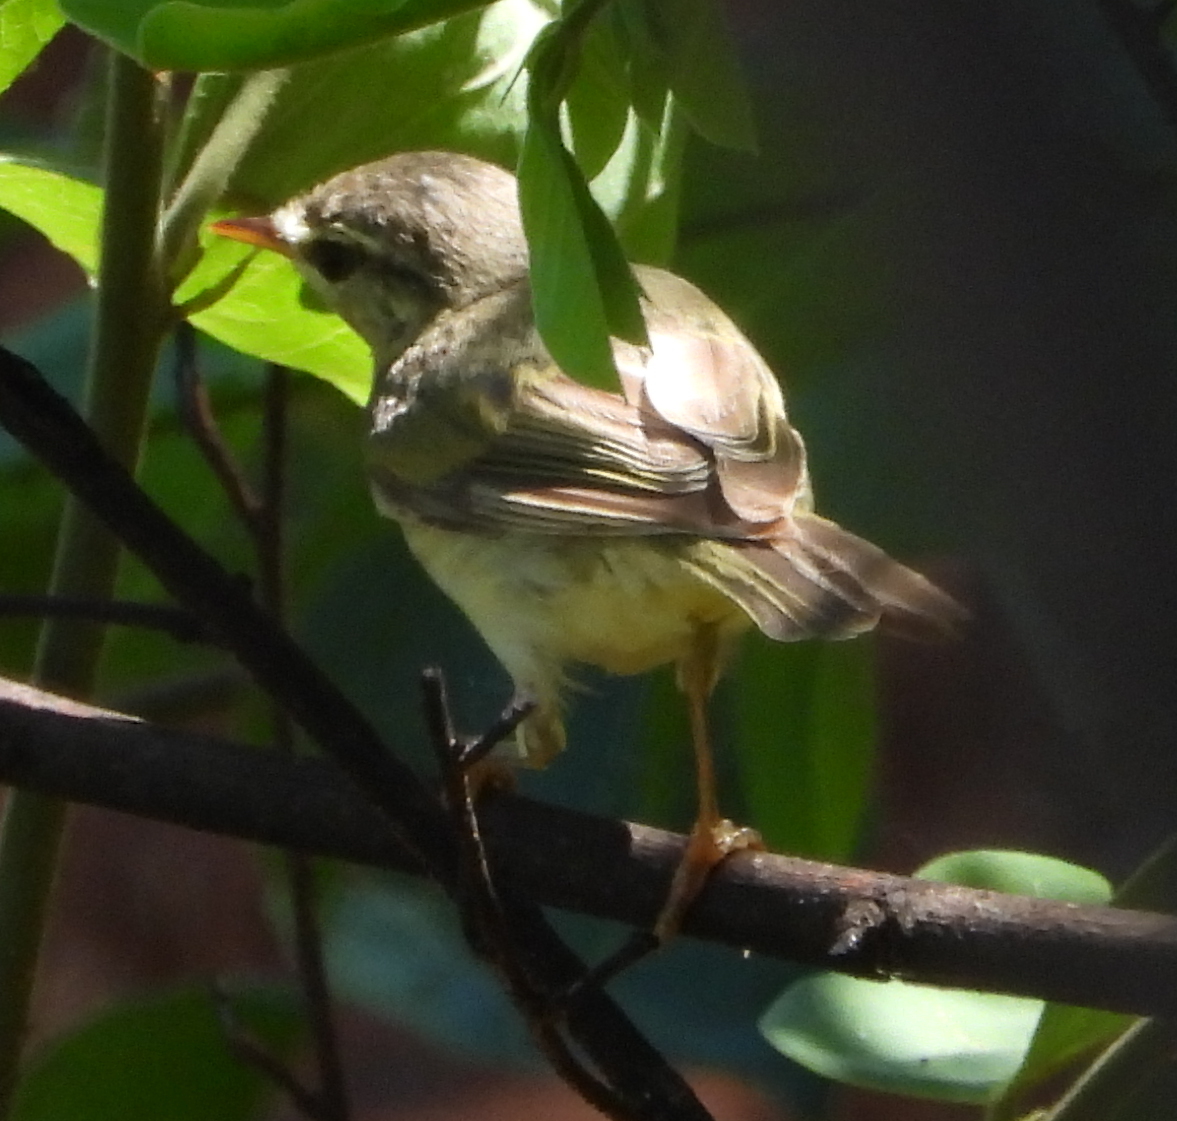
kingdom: Animalia
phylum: Chordata
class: Aves
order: Passeriformes
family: Phylloscopidae
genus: Phylloscopus
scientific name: Phylloscopus trochilus
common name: Willow warbler
